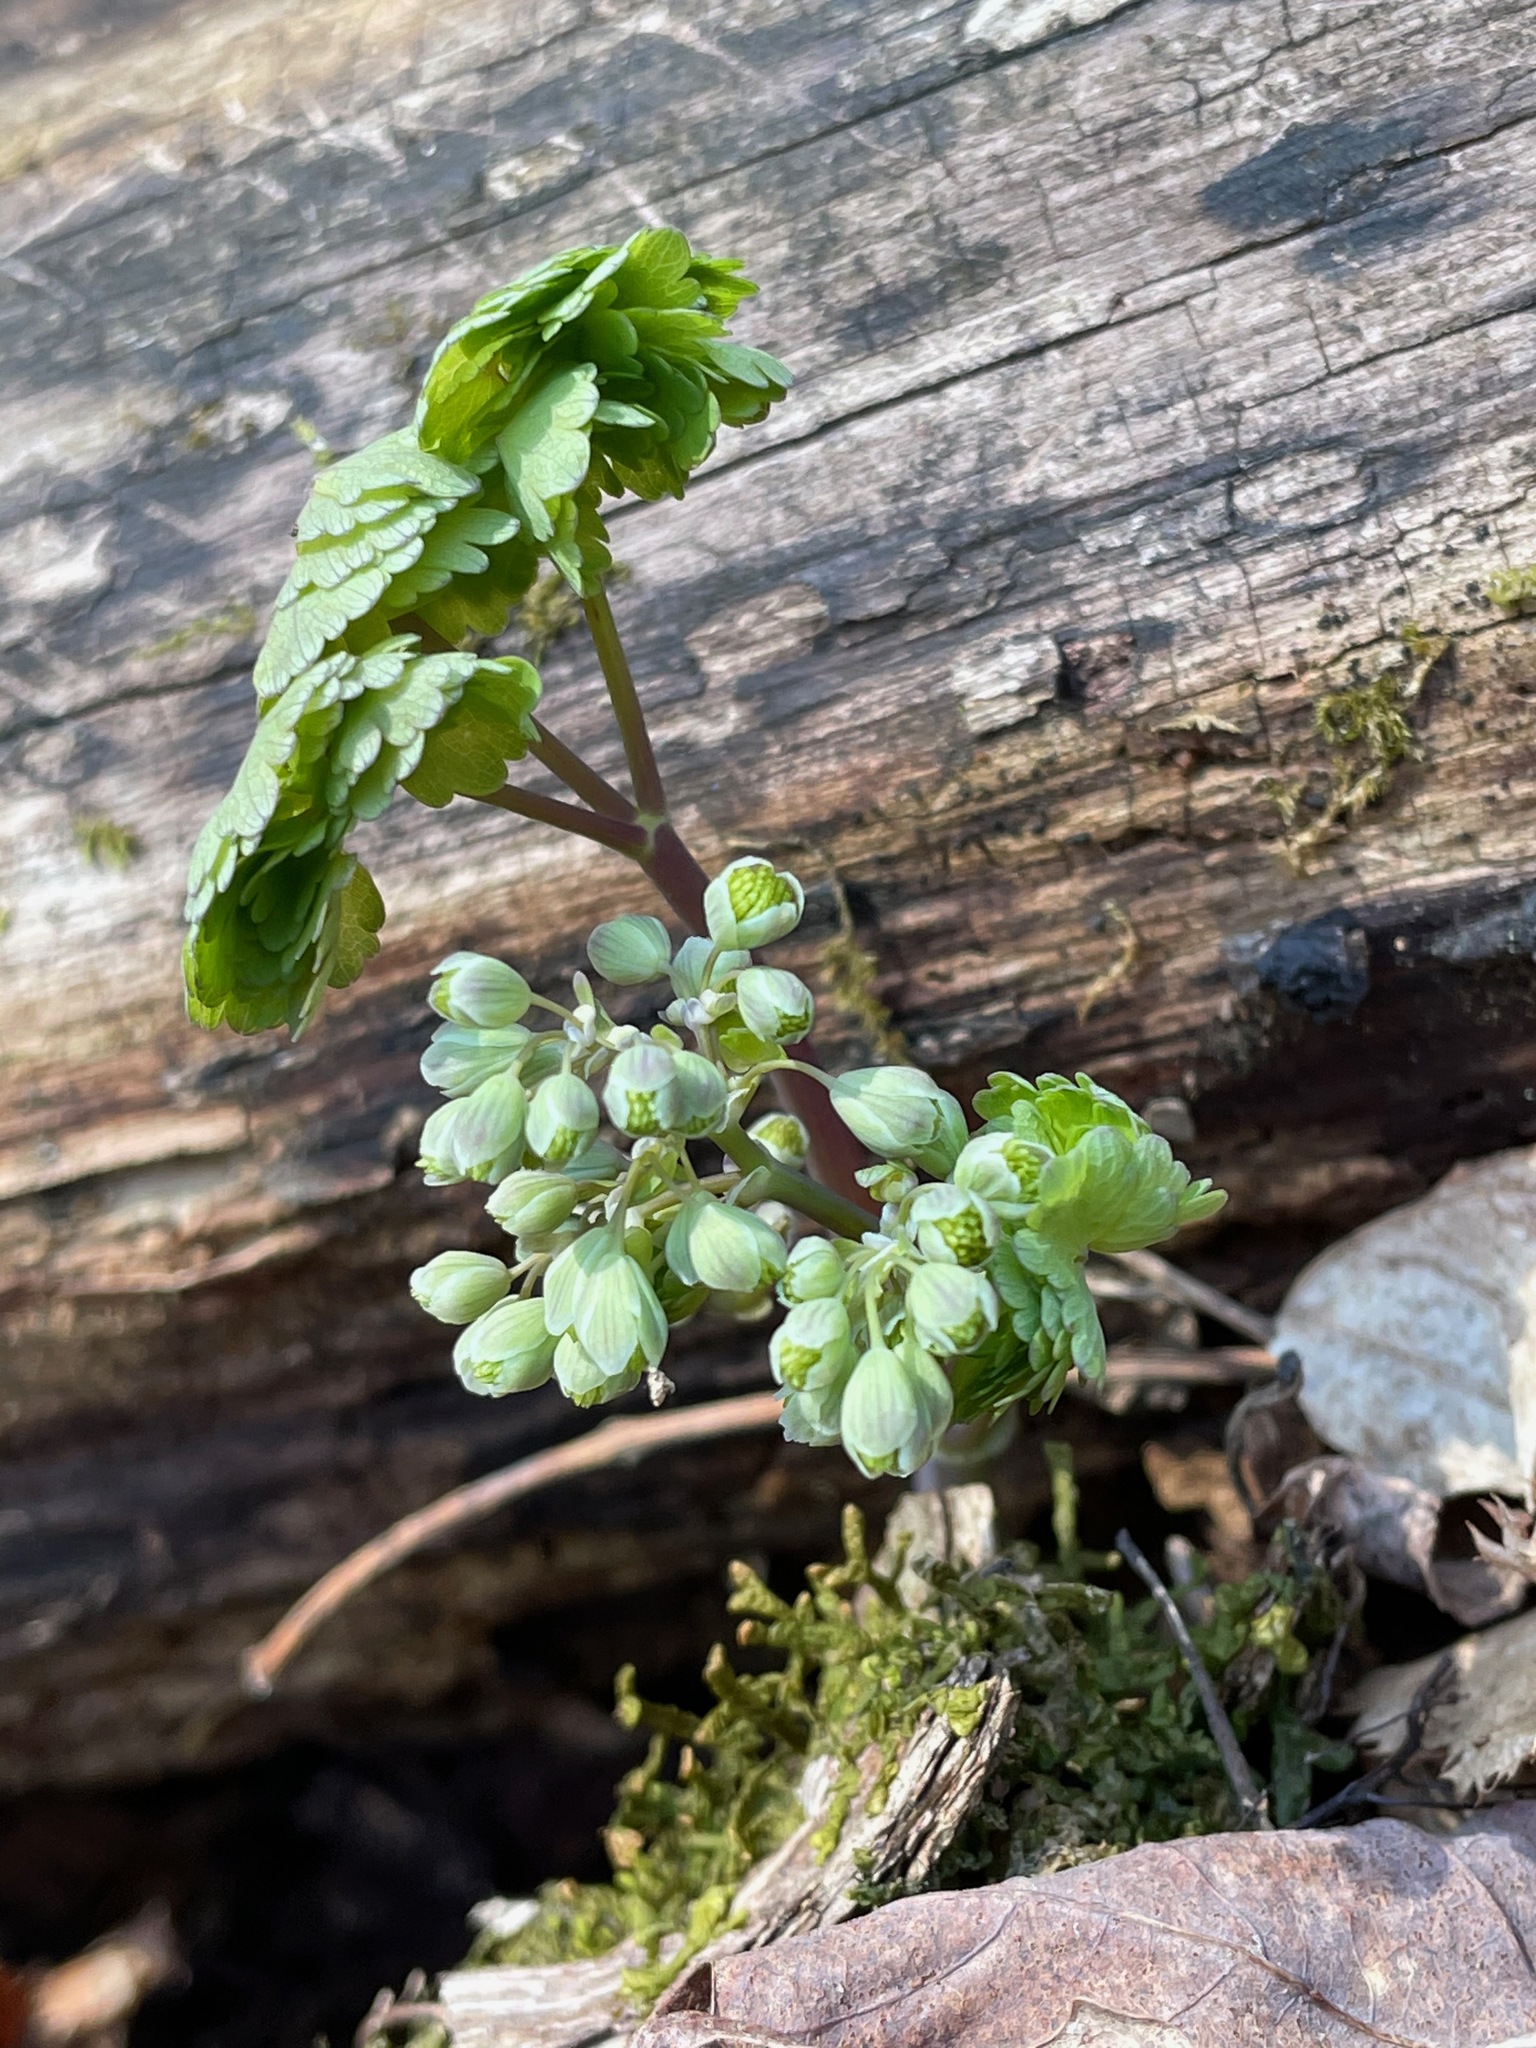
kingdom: Plantae
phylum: Tracheophyta
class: Magnoliopsida
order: Ranunculales
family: Ranunculaceae
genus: Thalictrum
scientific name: Thalictrum dioicum
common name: Early meadow-rue
